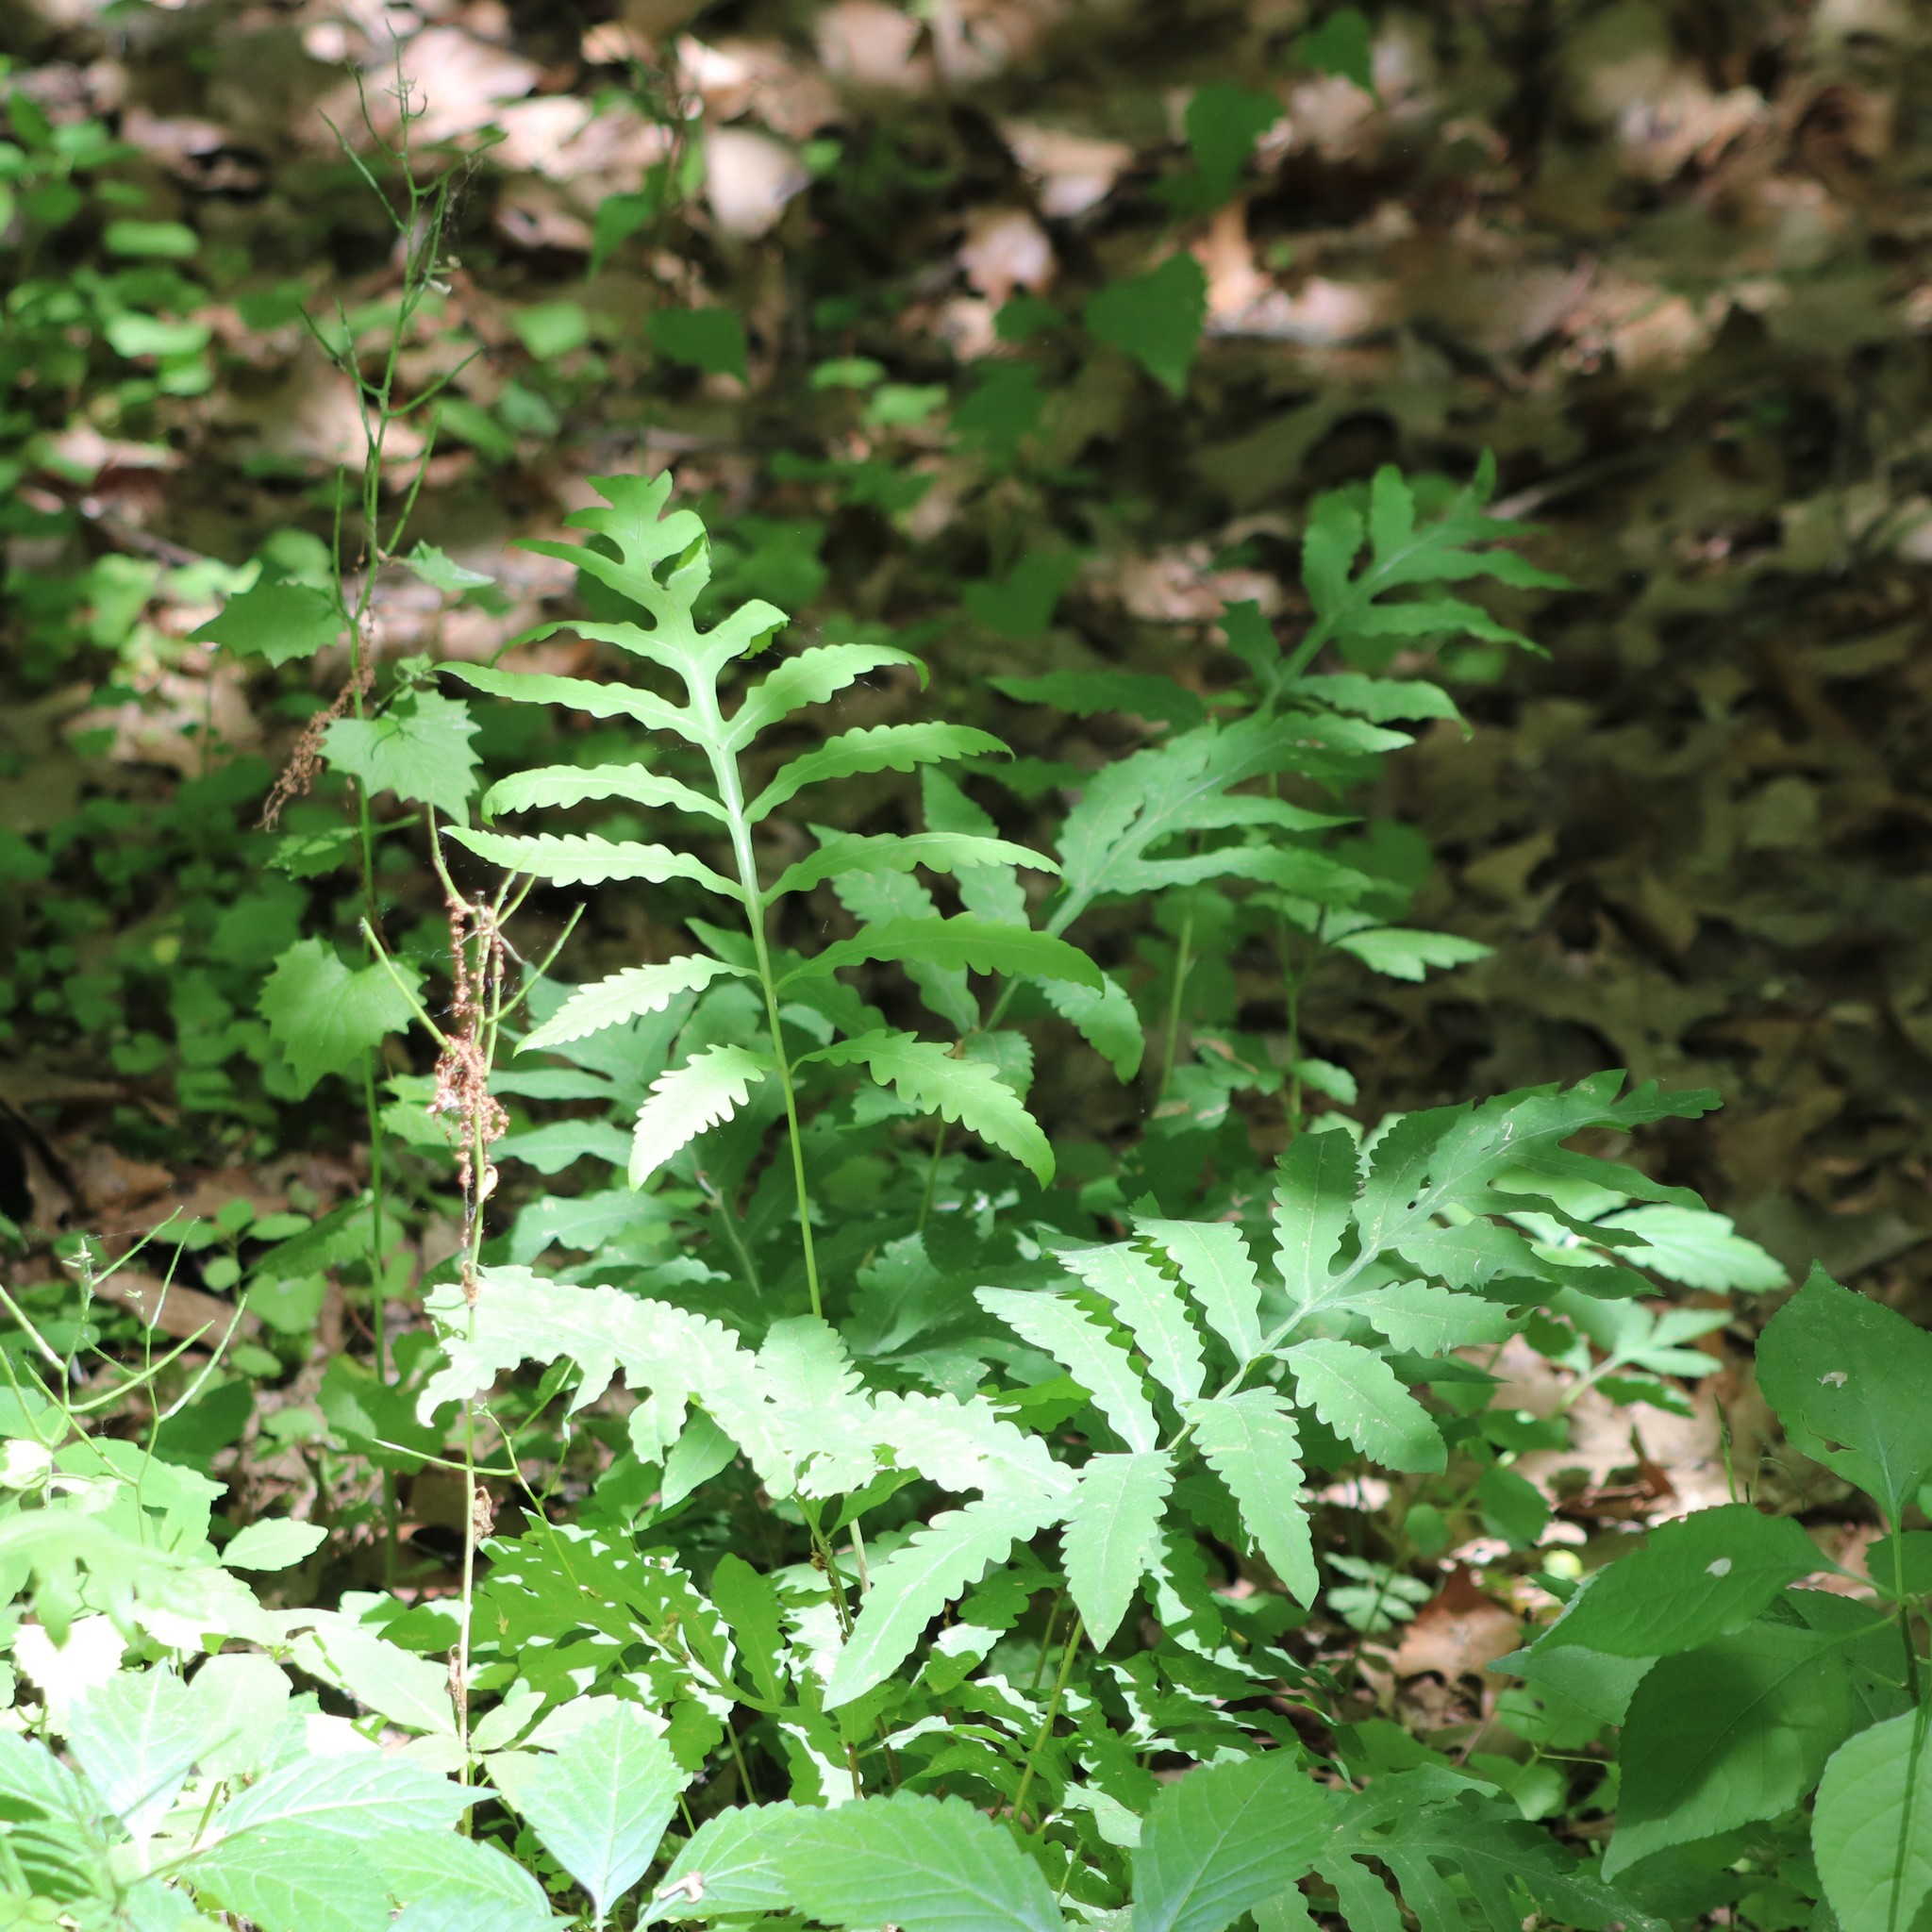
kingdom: Plantae
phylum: Tracheophyta
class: Polypodiopsida
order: Polypodiales
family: Onocleaceae
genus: Onoclea
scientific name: Onoclea sensibilis
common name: Sensitive fern
